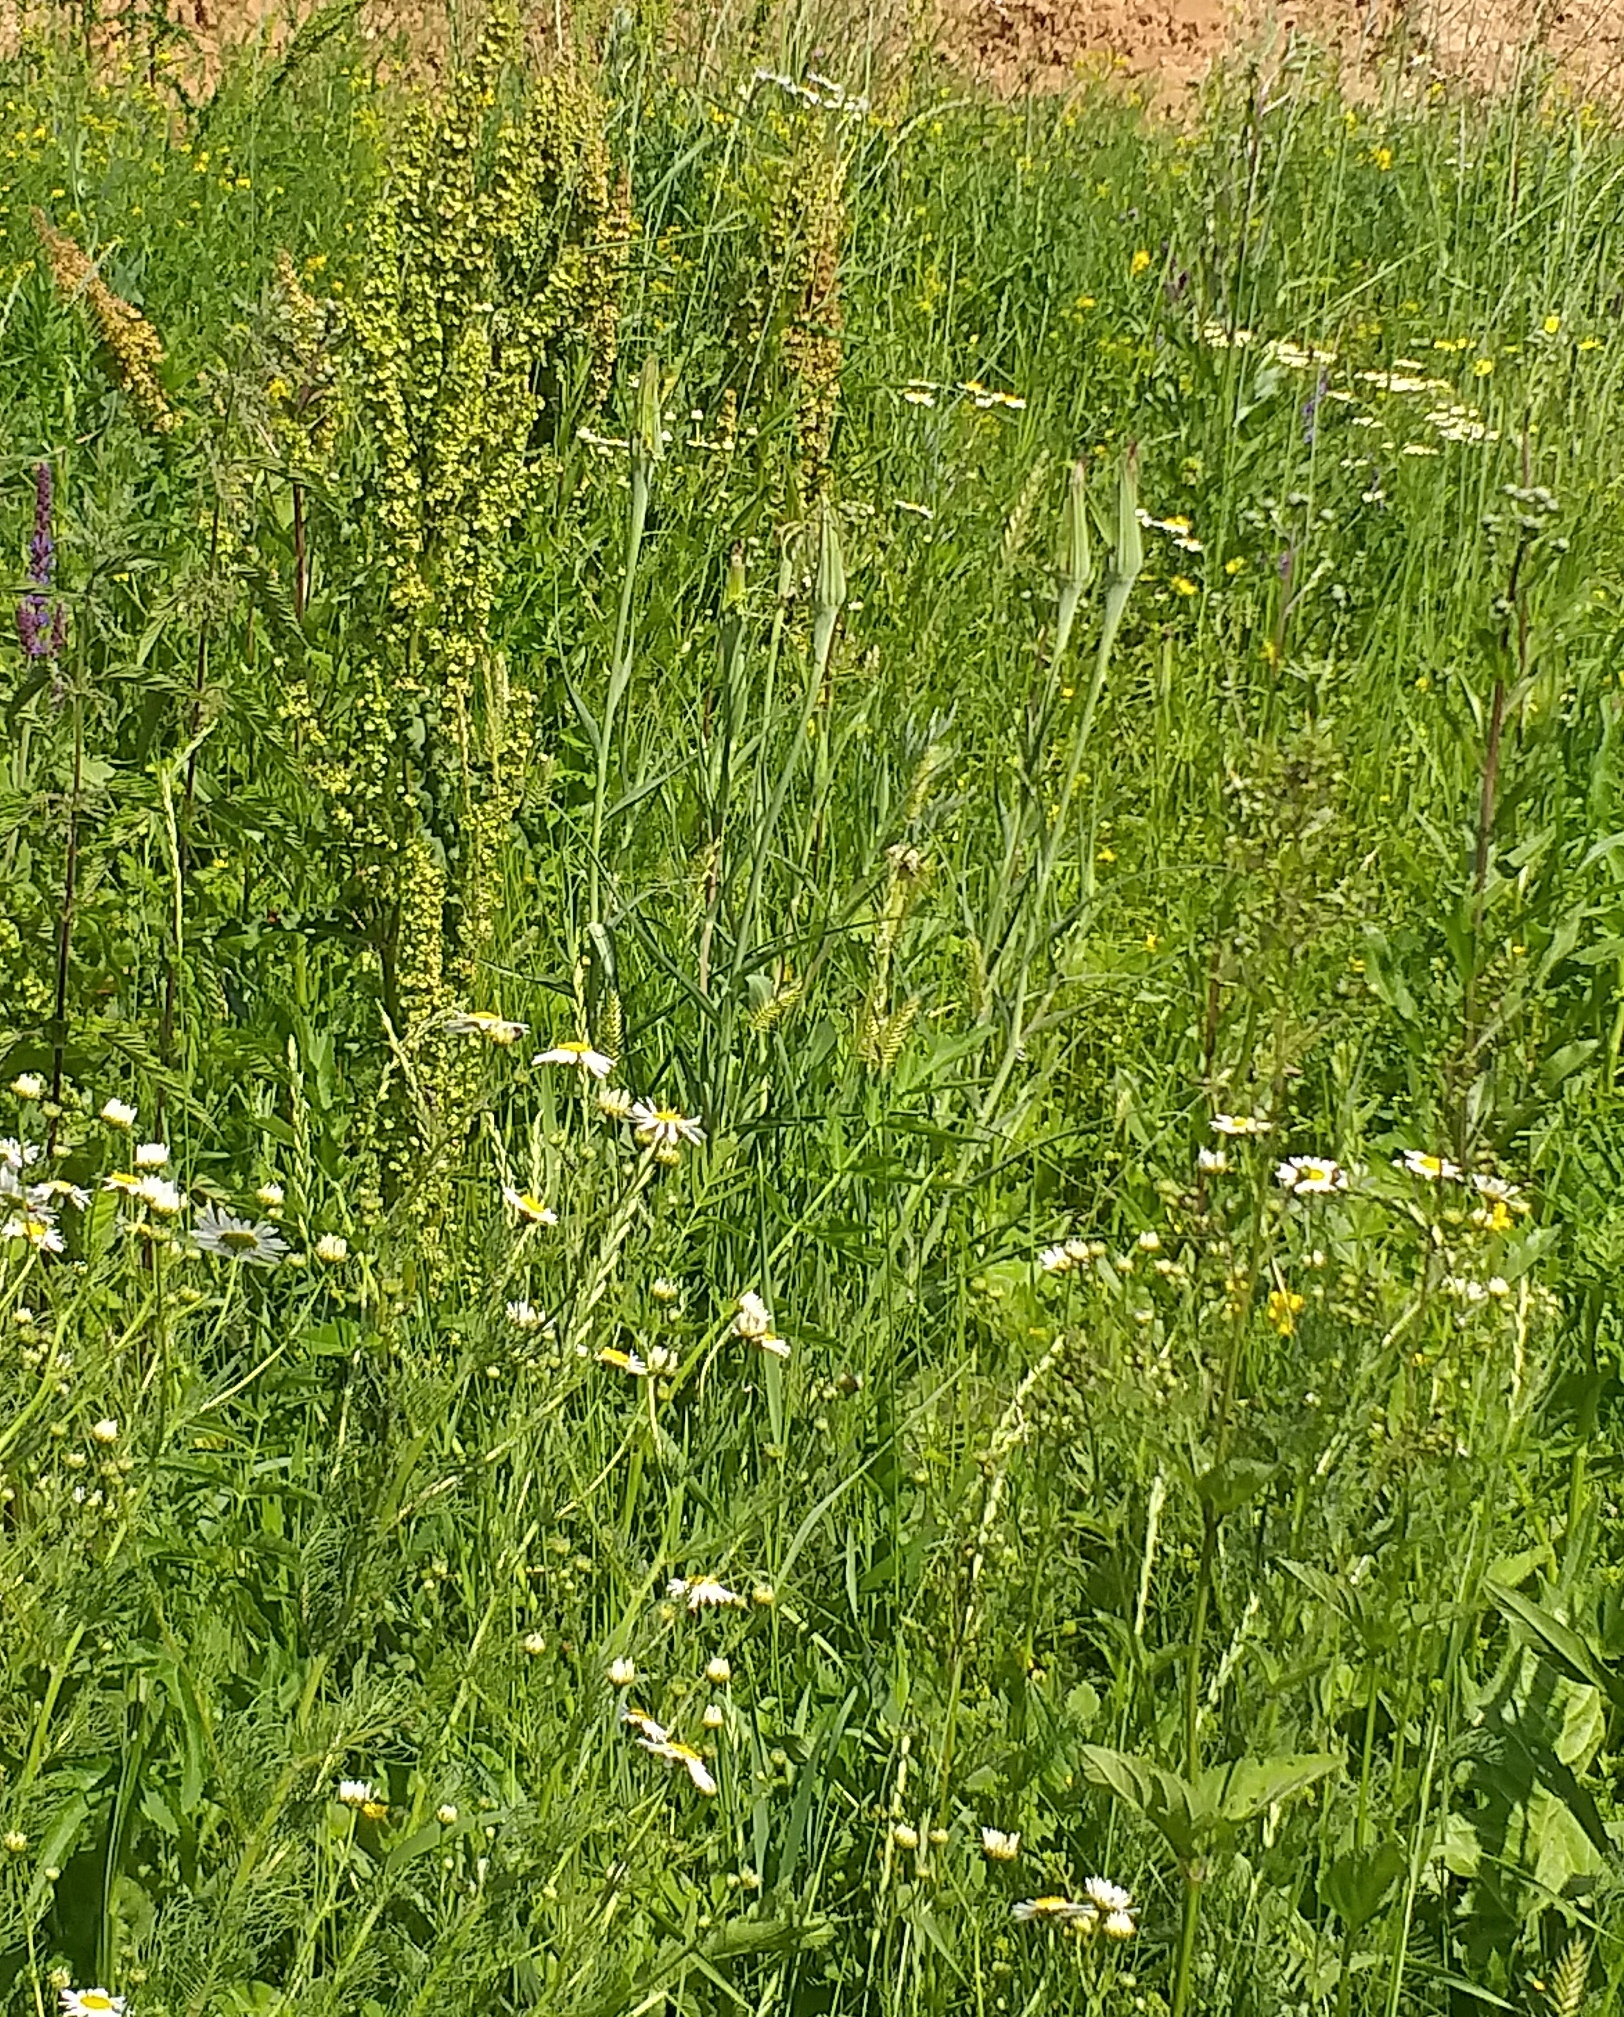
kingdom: Plantae
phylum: Tracheophyta
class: Magnoliopsida
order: Asterales
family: Asteraceae
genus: Tragopogon
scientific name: Tragopogon dubius
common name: Yellow salsify
